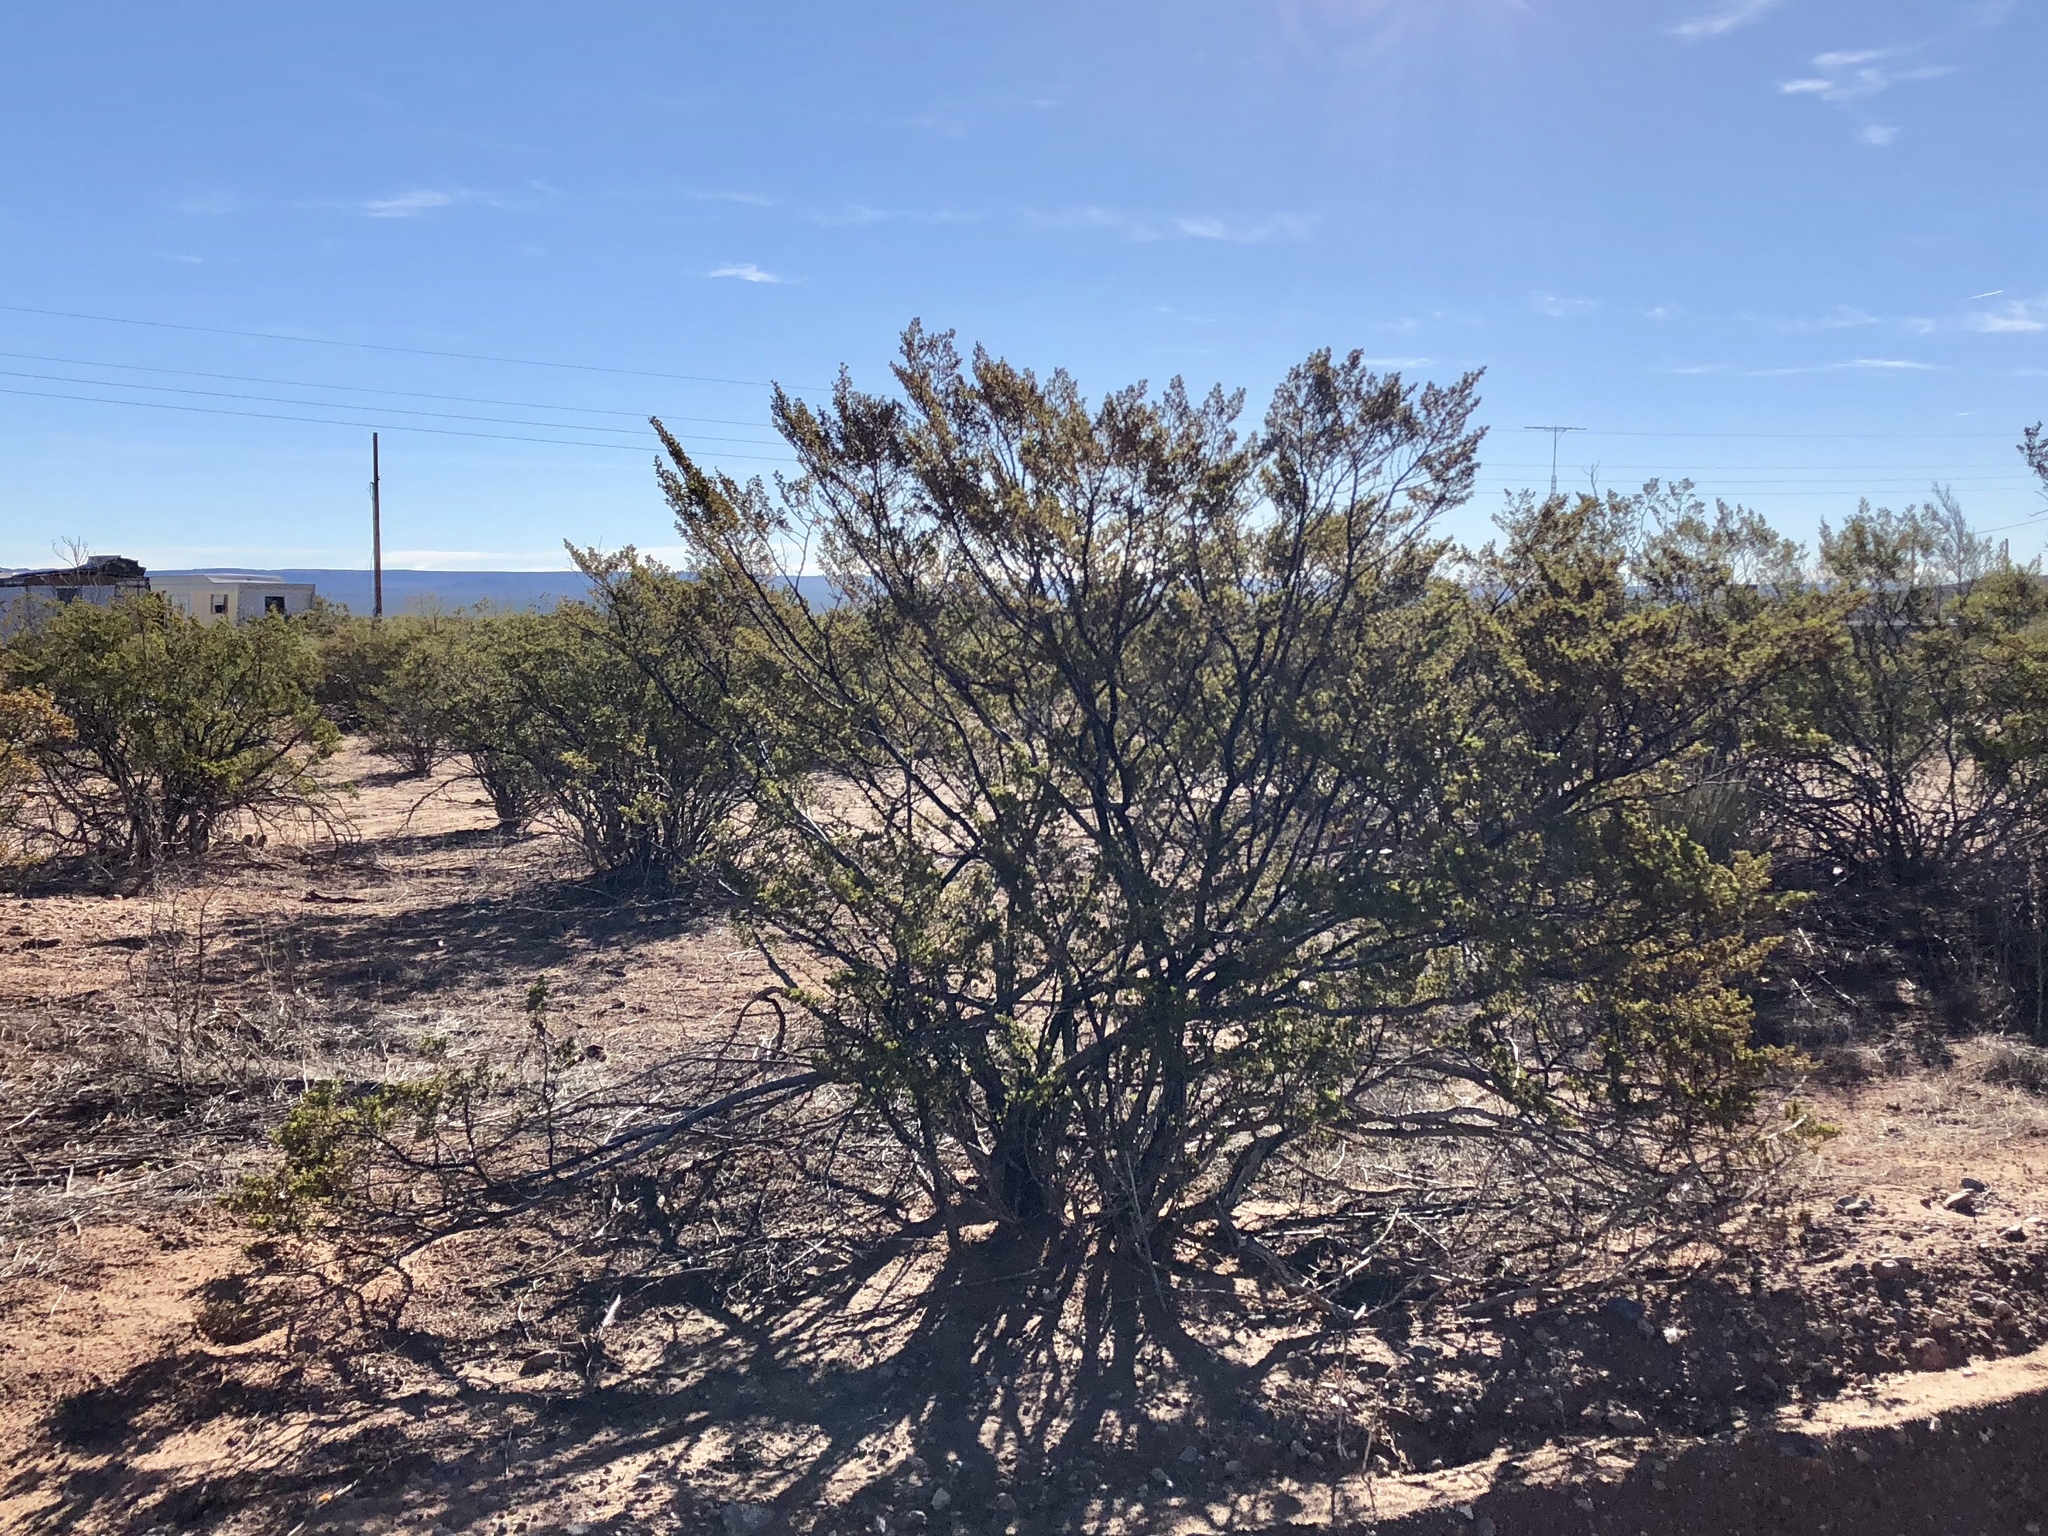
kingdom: Plantae
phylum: Tracheophyta
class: Magnoliopsida
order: Zygophyllales
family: Zygophyllaceae
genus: Larrea
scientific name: Larrea tridentata
